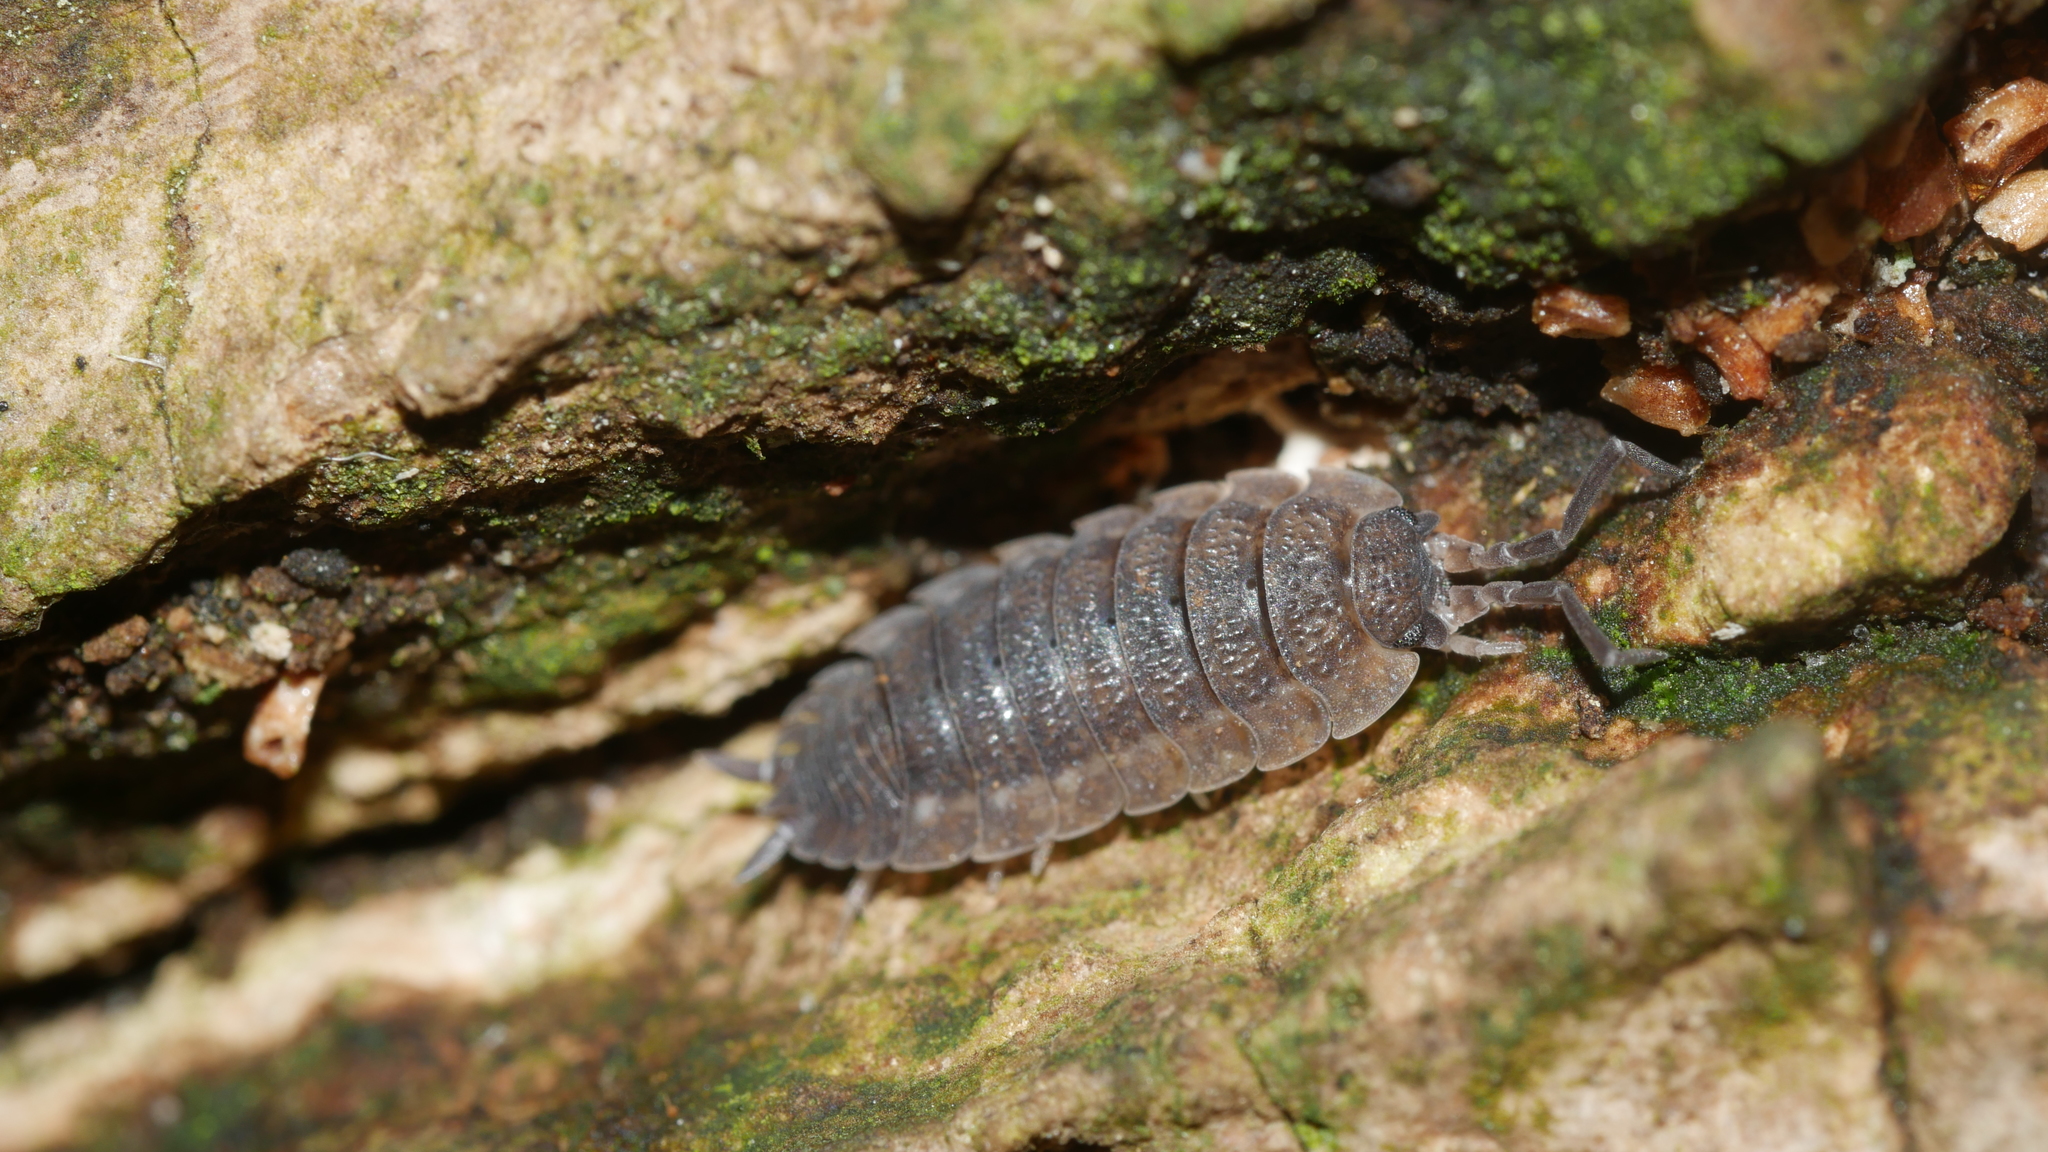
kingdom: Animalia
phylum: Arthropoda
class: Malacostraca
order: Isopoda
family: Porcellionidae
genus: Porcellio
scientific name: Porcellio scaber
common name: Common rough woodlouse
